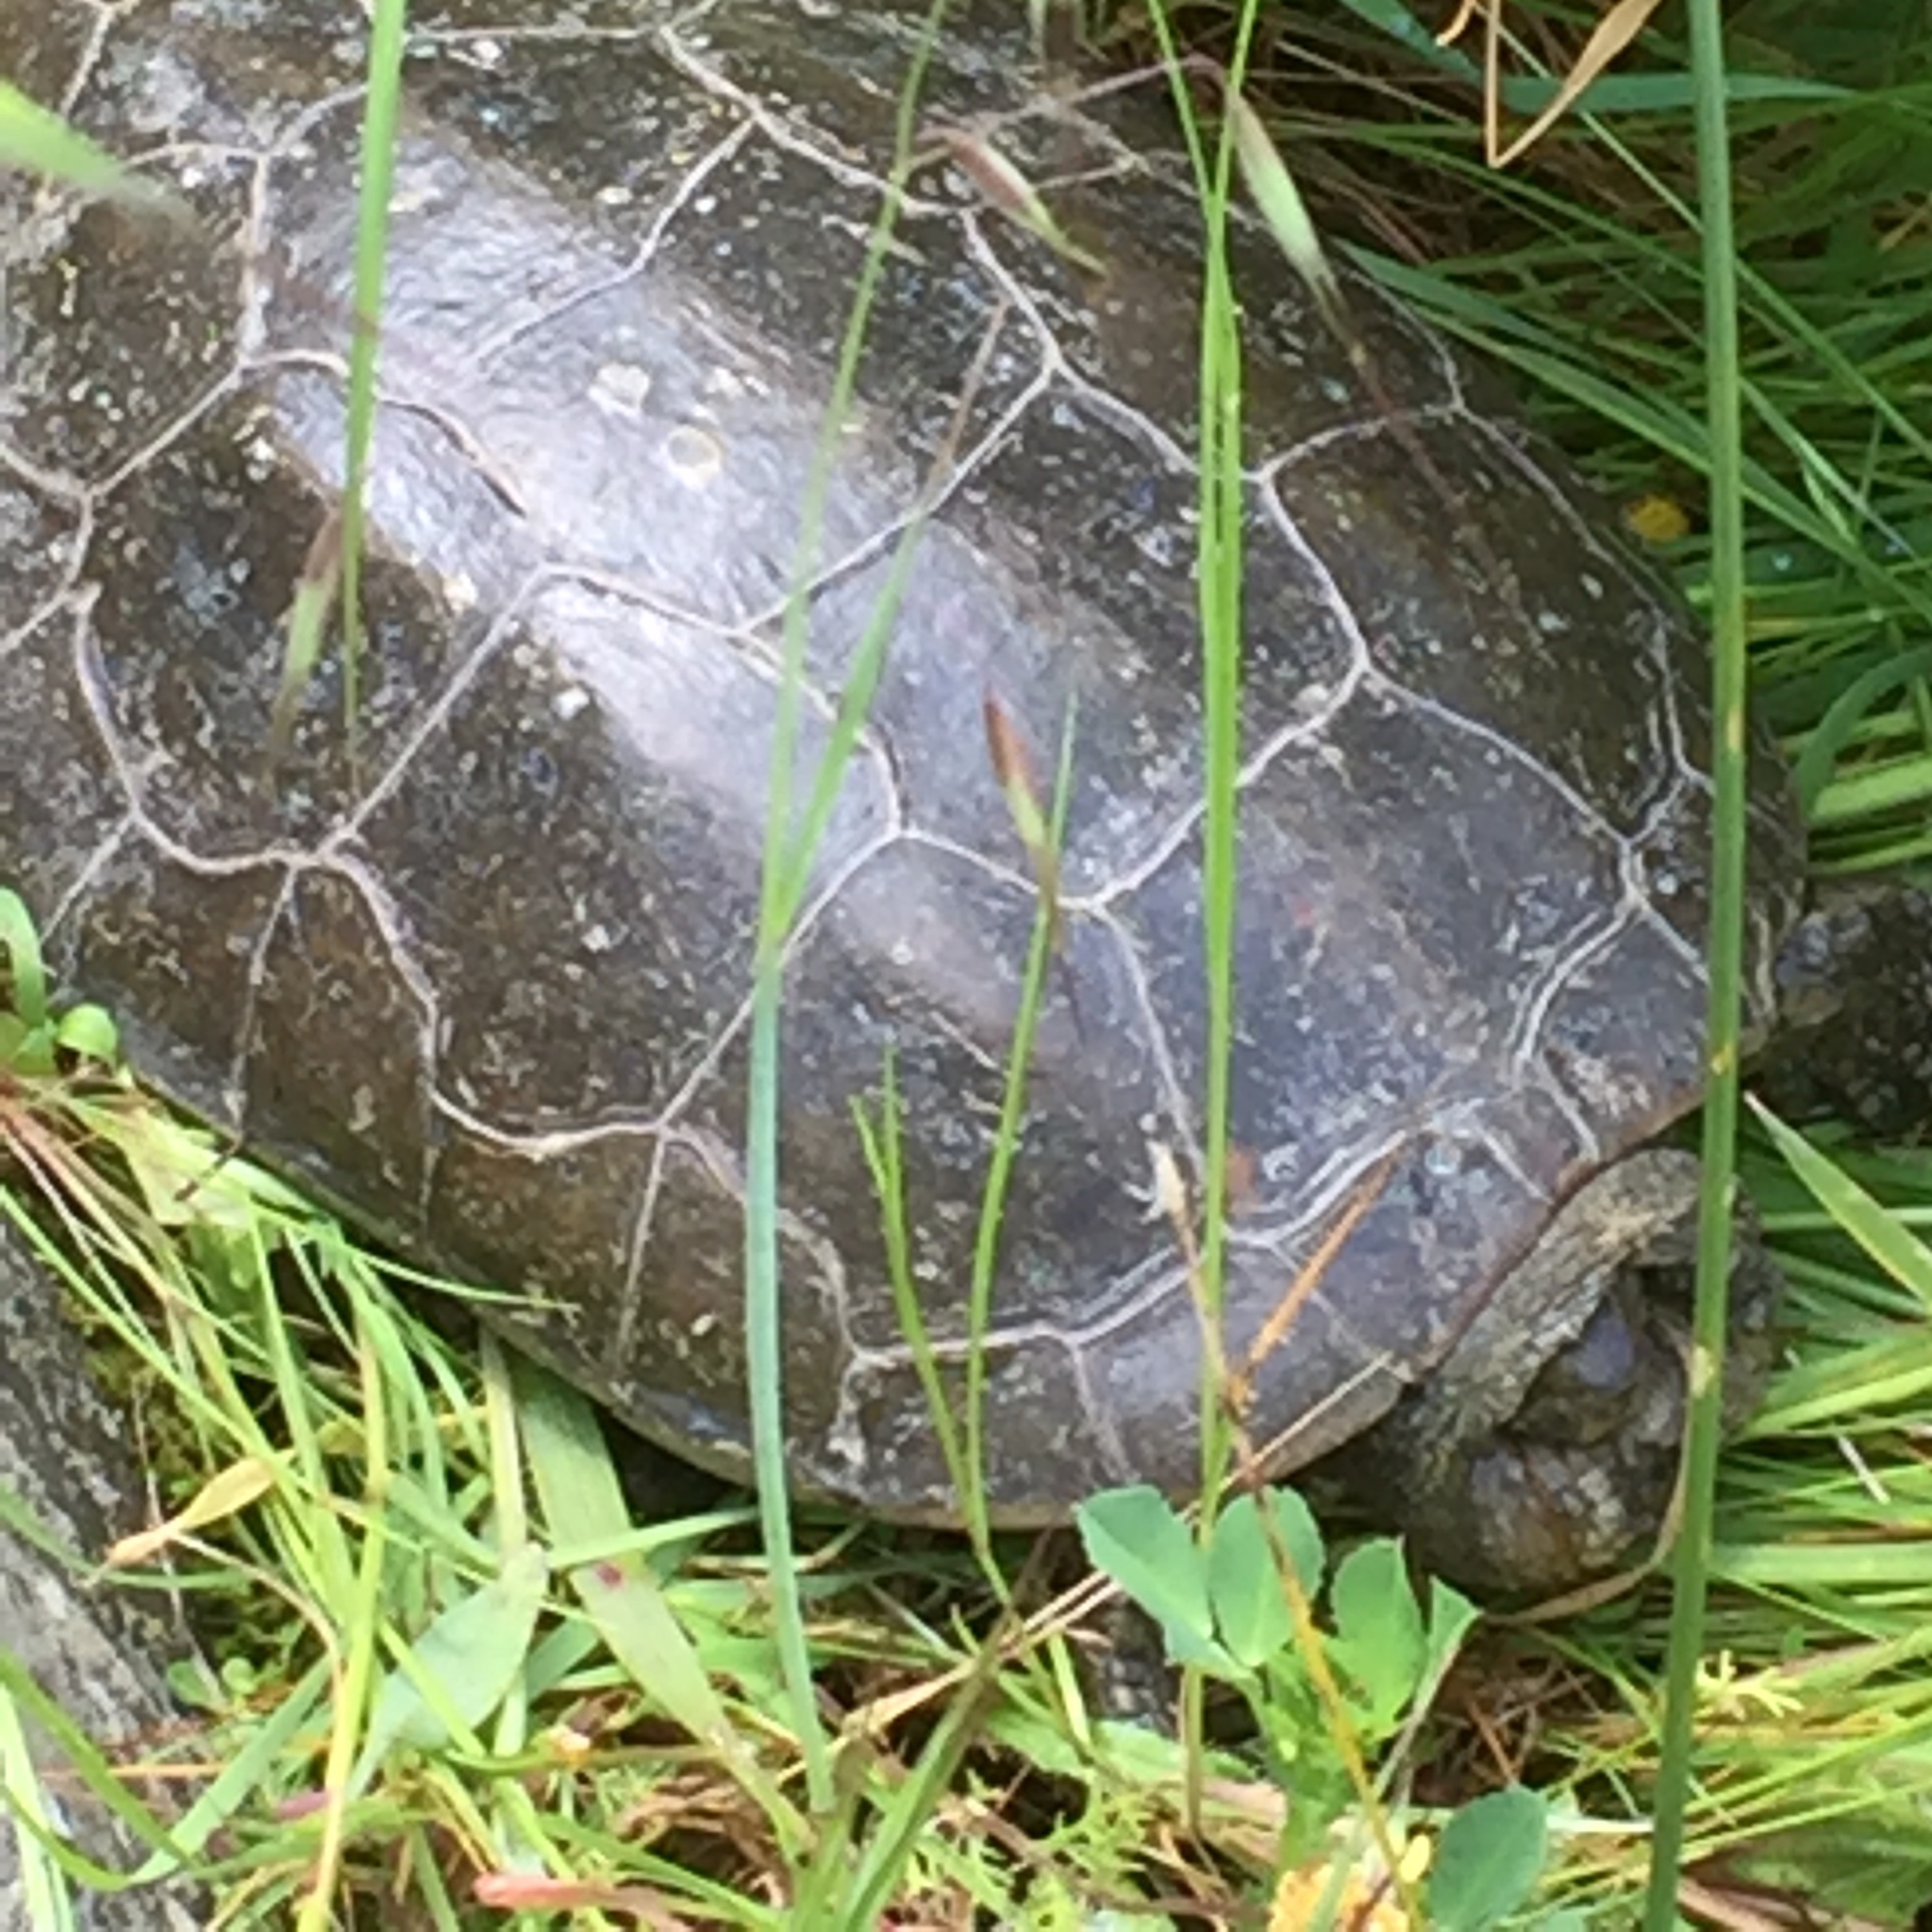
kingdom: Animalia
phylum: Chordata
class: Testudines
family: Geoemydidae
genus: Mauremys
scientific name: Mauremys leprosa
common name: Mediterranean pond turtle
